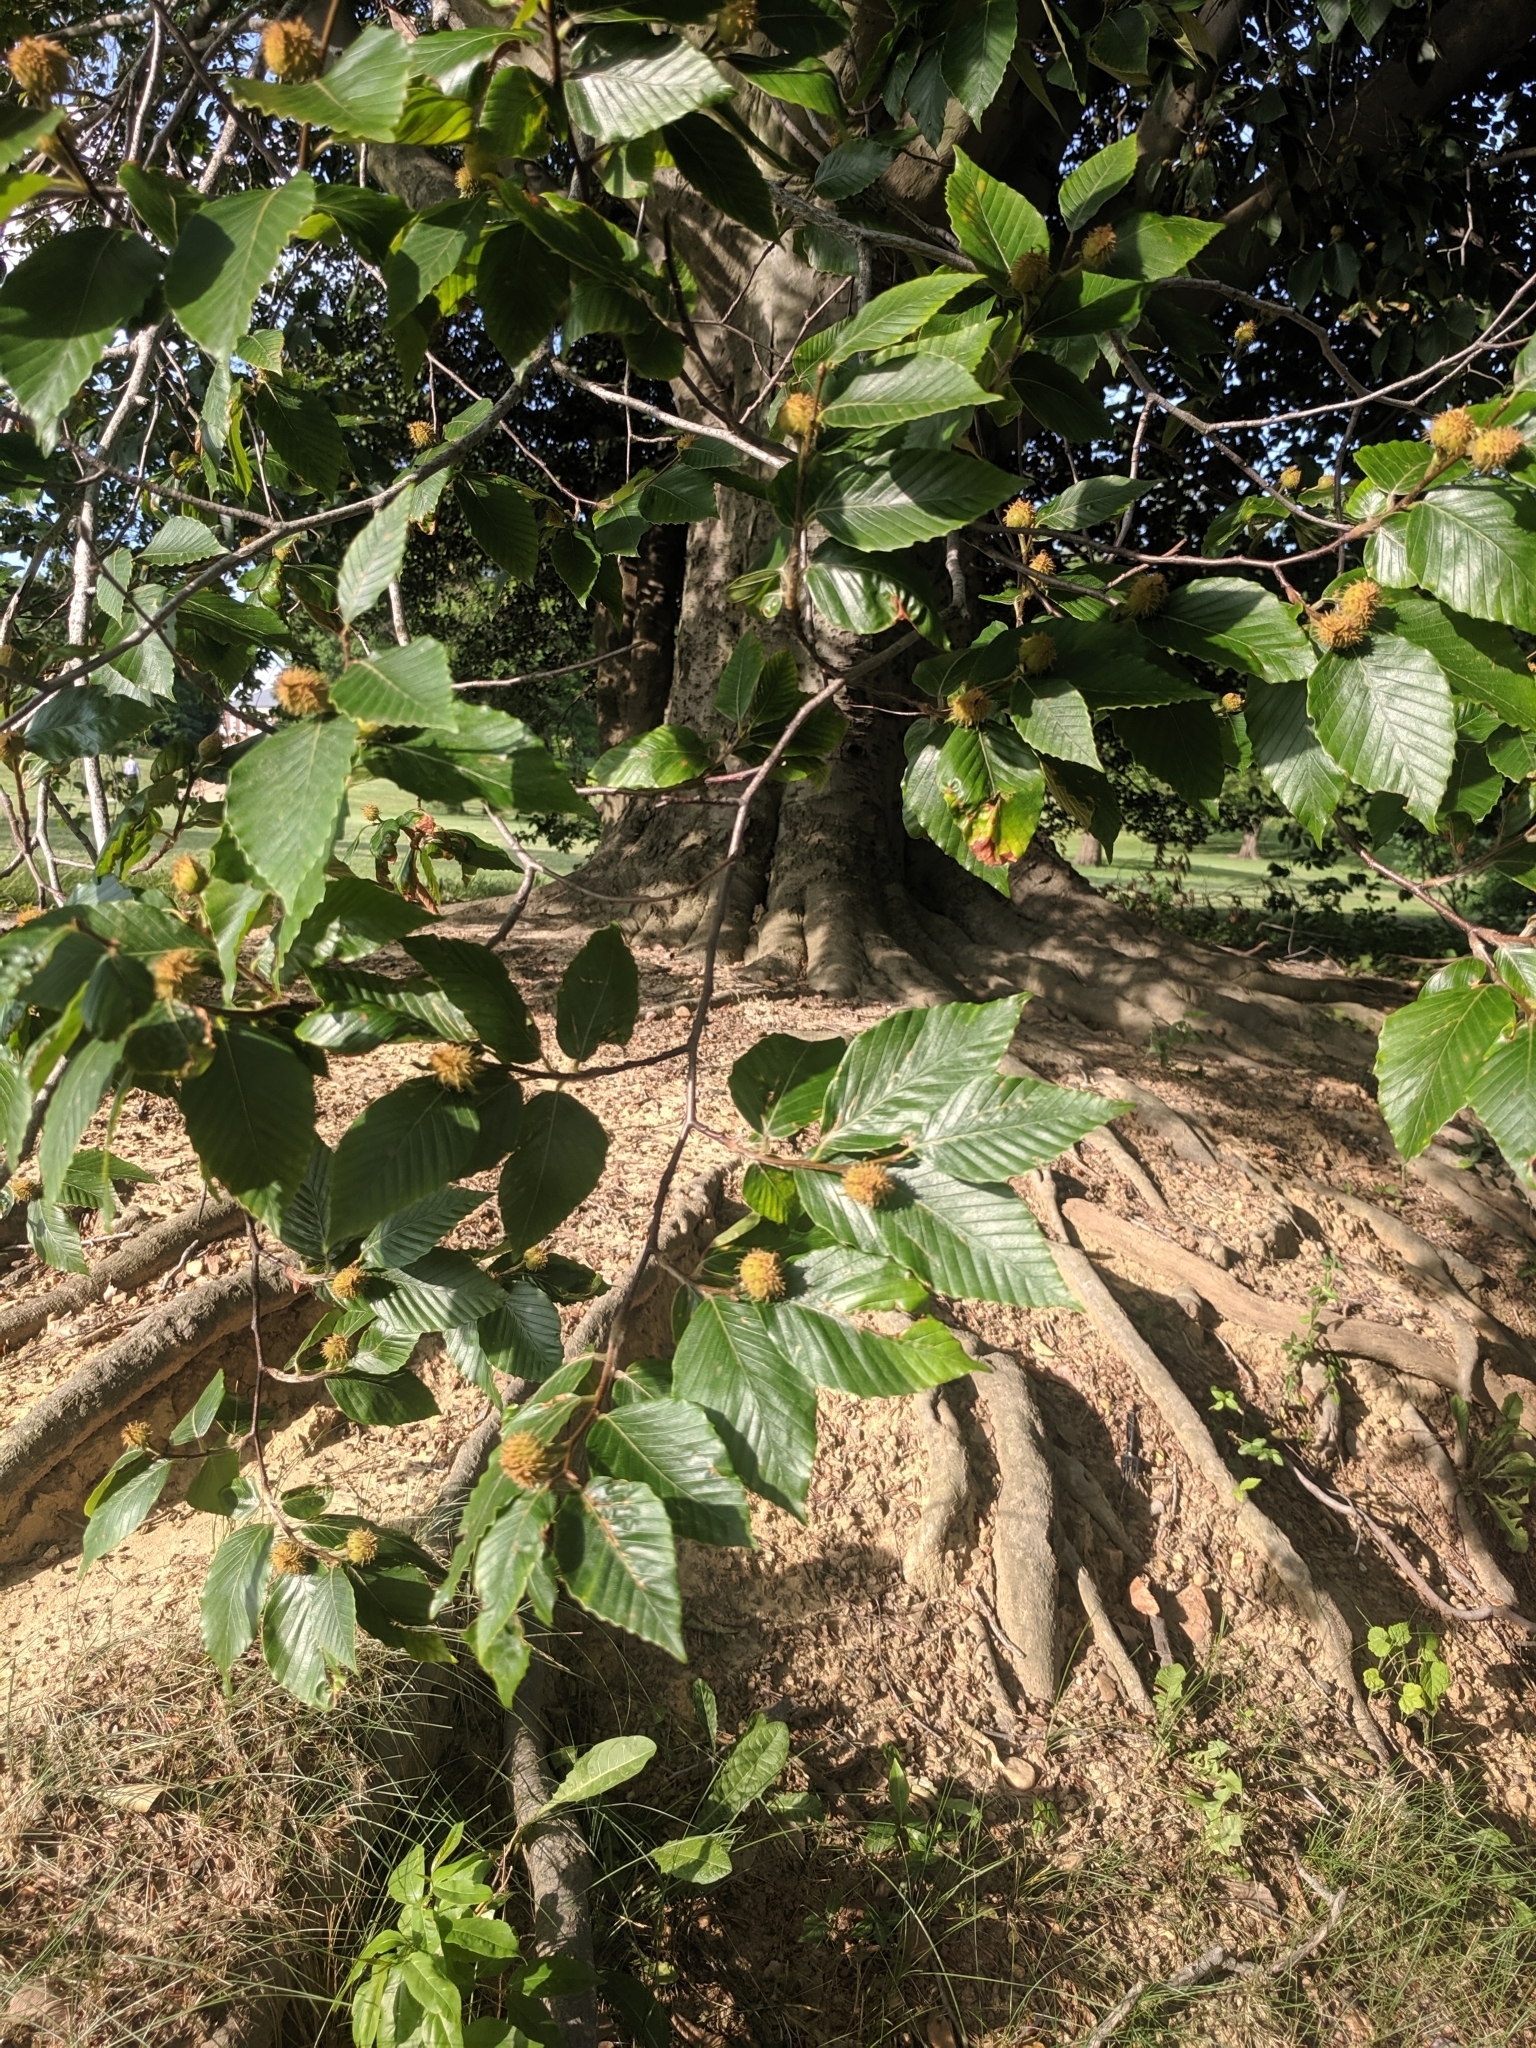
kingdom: Plantae
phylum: Tracheophyta
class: Magnoliopsida
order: Fagales
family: Fagaceae
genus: Fagus
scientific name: Fagus grandifolia
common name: American beech
